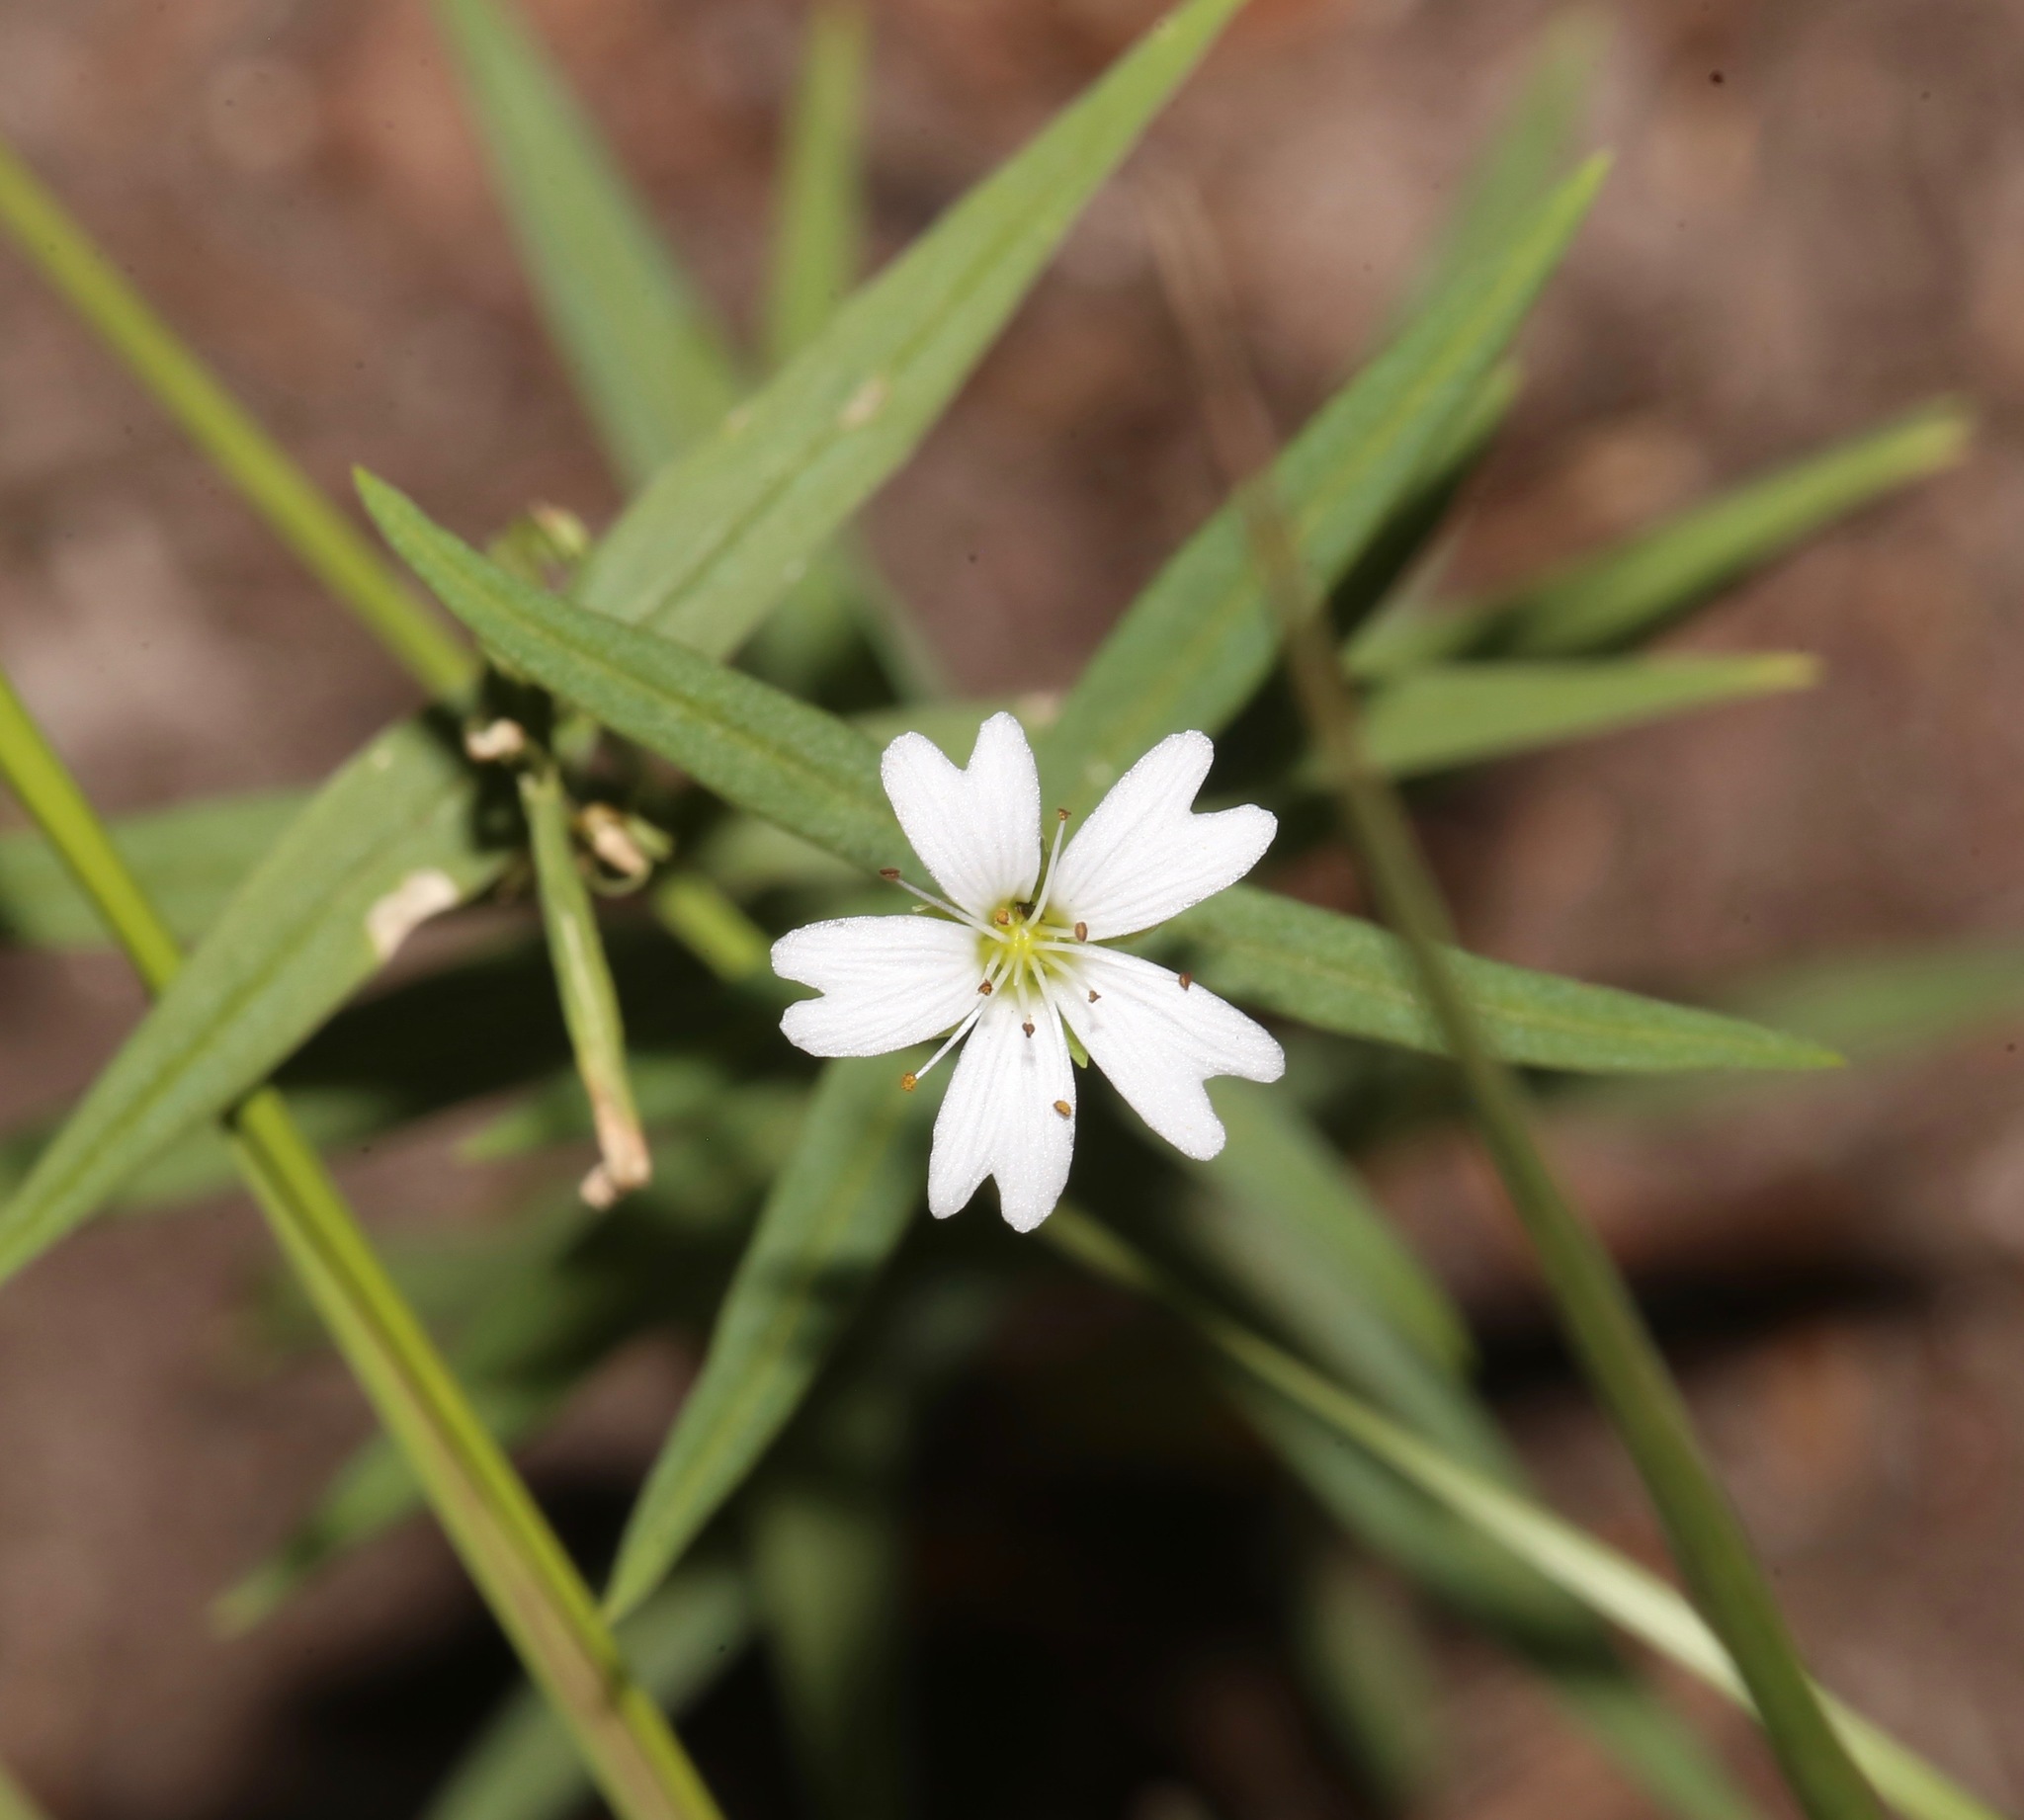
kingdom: Plantae
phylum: Tracheophyta
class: Magnoliopsida
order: Caryophyllales
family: Caryophyllaceae
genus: Schizotechium
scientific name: Schizotechium jamesianum
